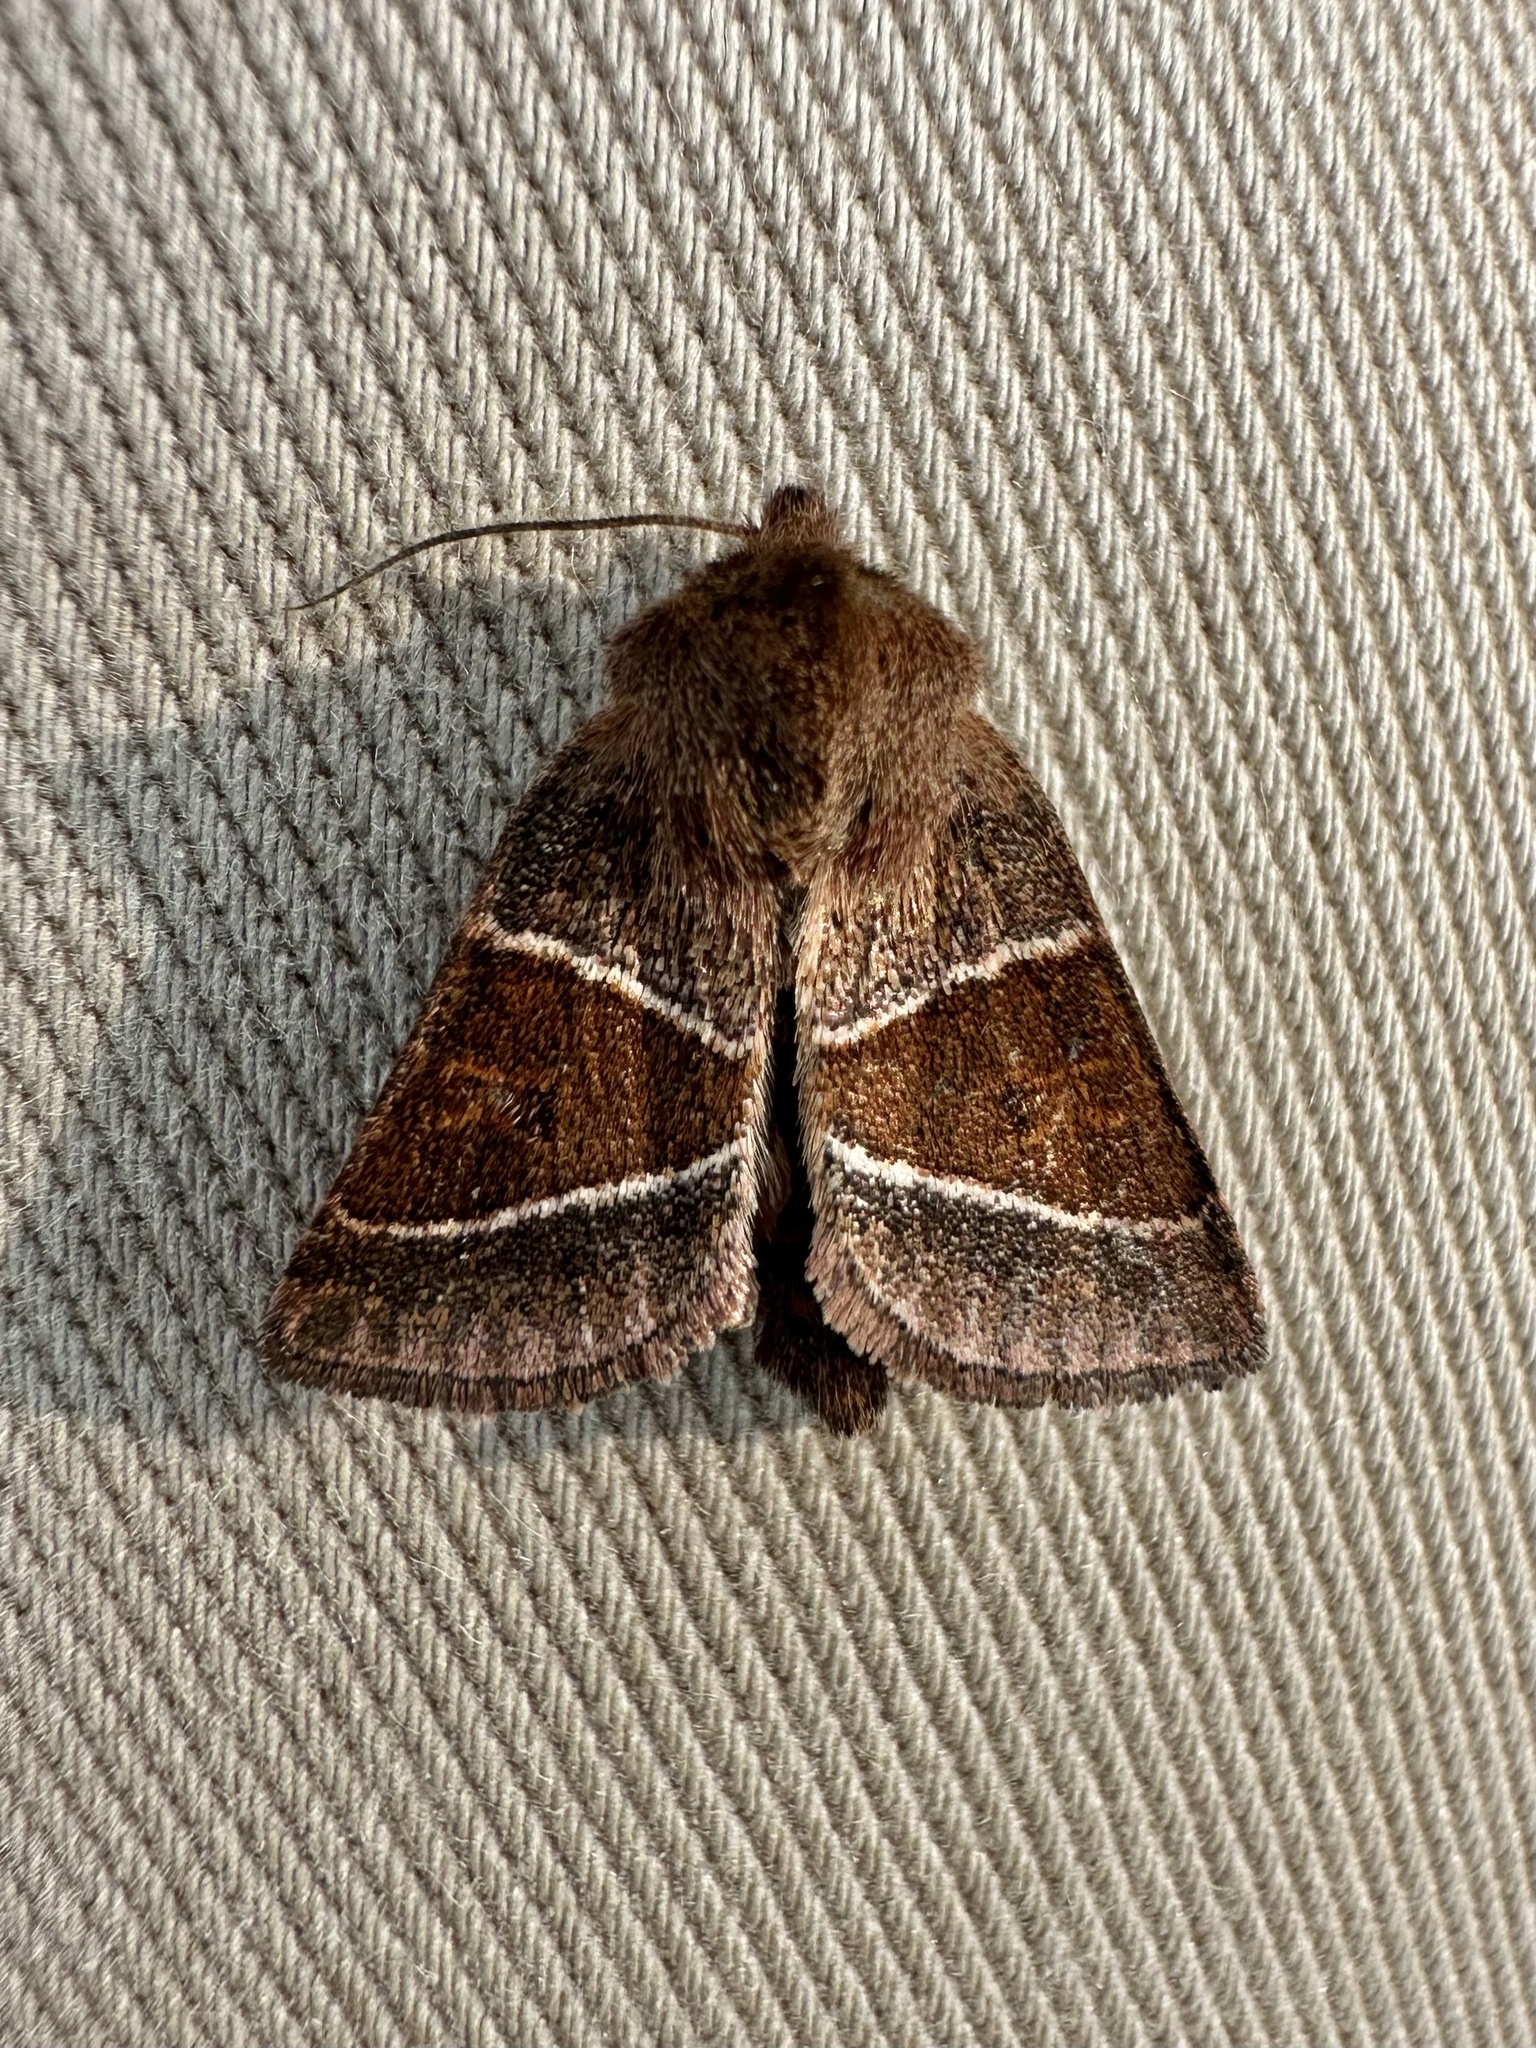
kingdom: Animalia
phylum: Arthropoda
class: Insecta
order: Lepidoptera
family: Noctuidae
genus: Lemmeria
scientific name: Lemmeria digitalis
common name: Fingered lemmeria moth
